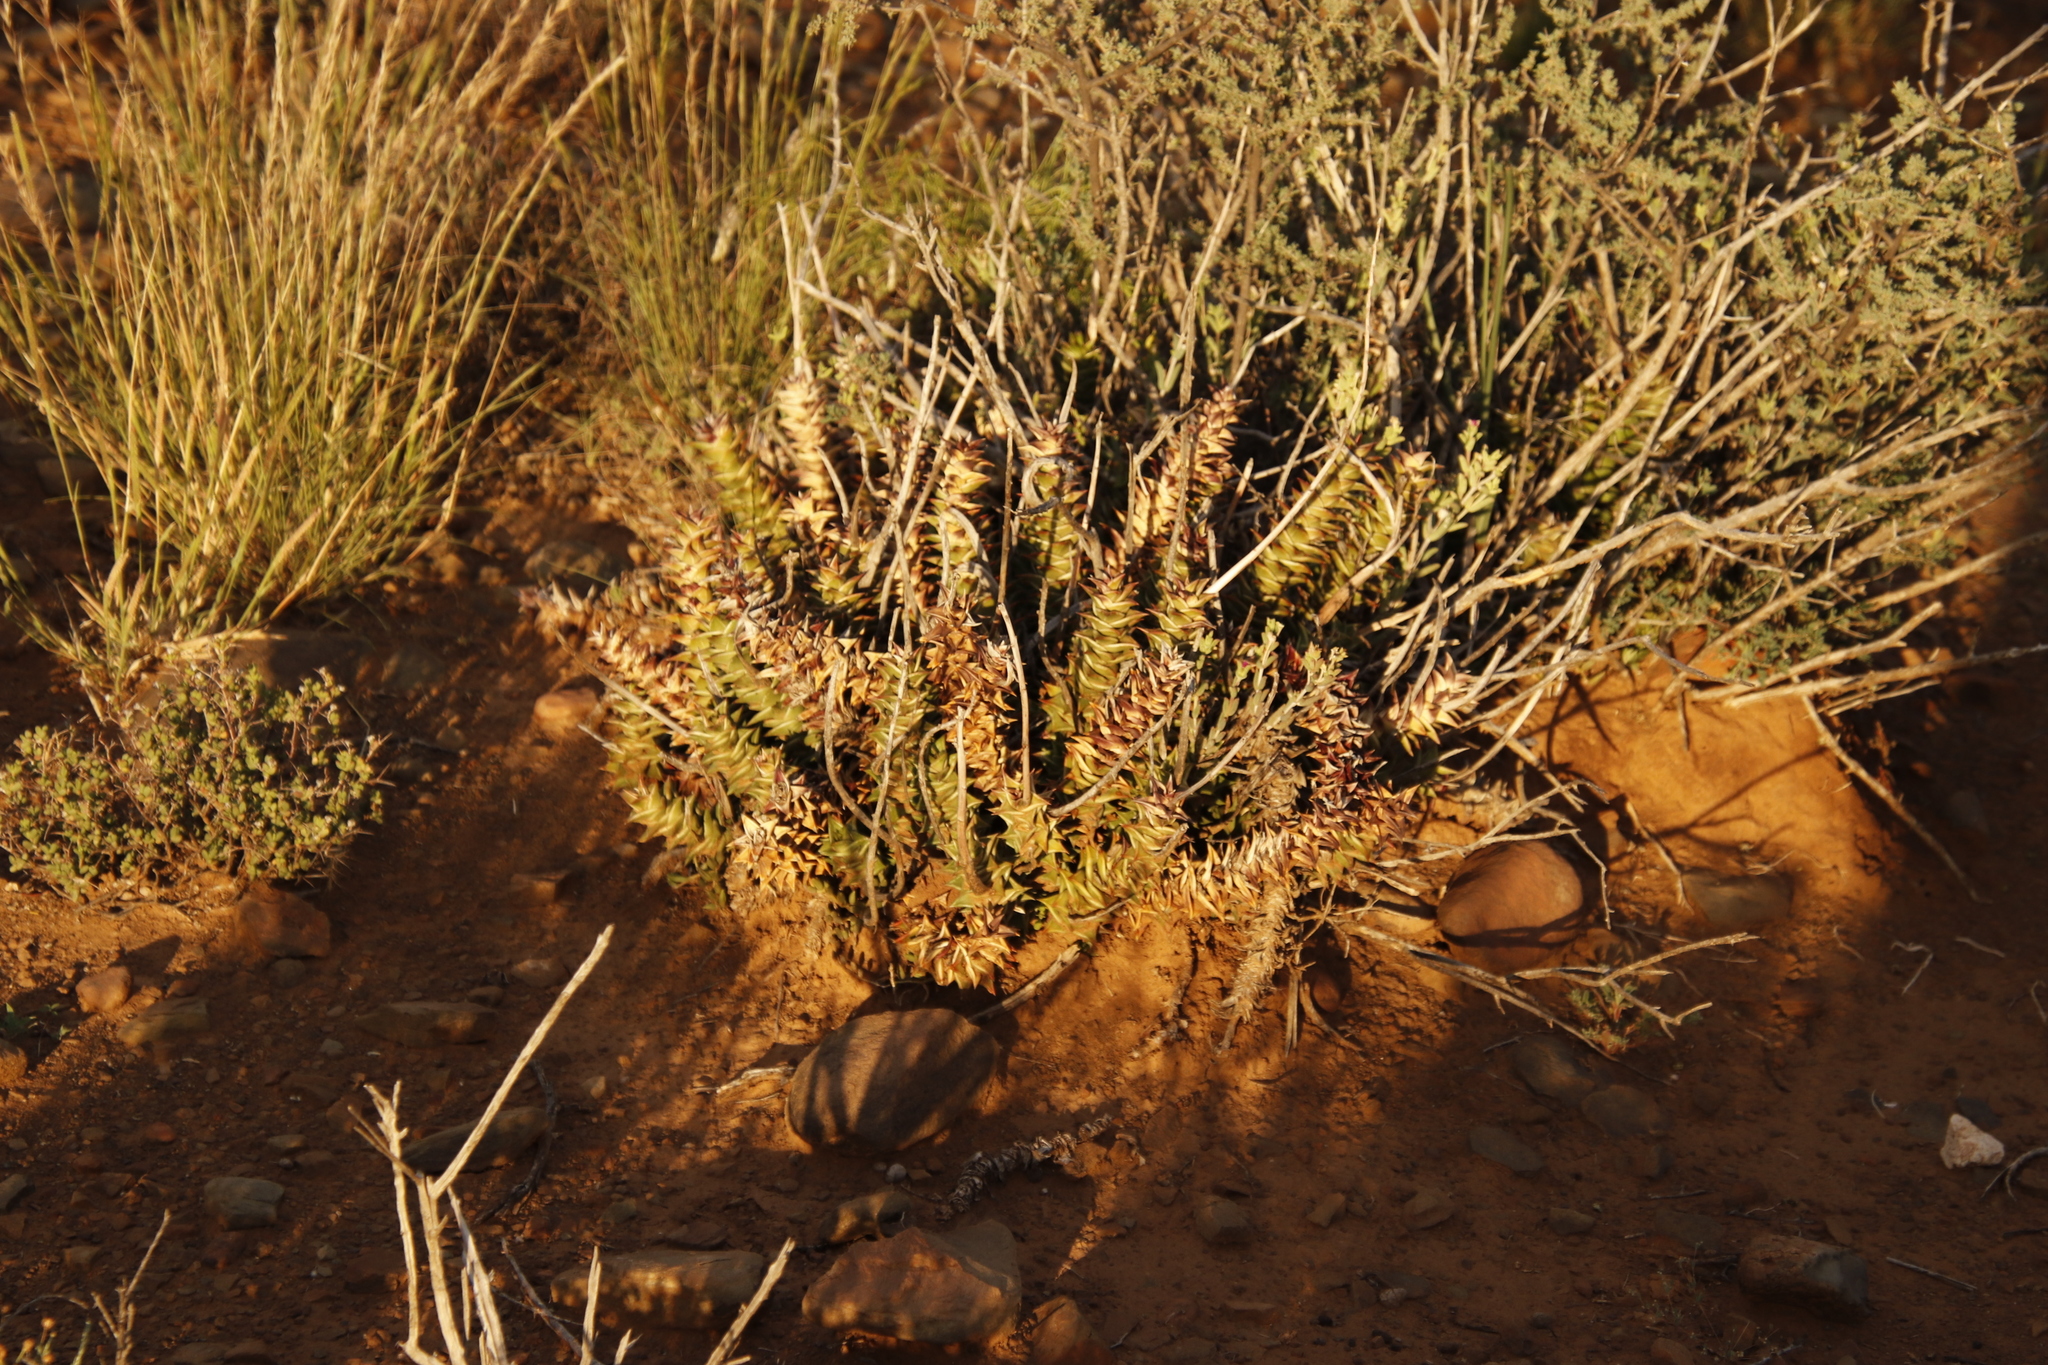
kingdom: Plantae
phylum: Tracheophyta
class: Liliopsida
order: Asparagales
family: Asphodelaceae
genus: Astroloba
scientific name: Astroloba robusta
